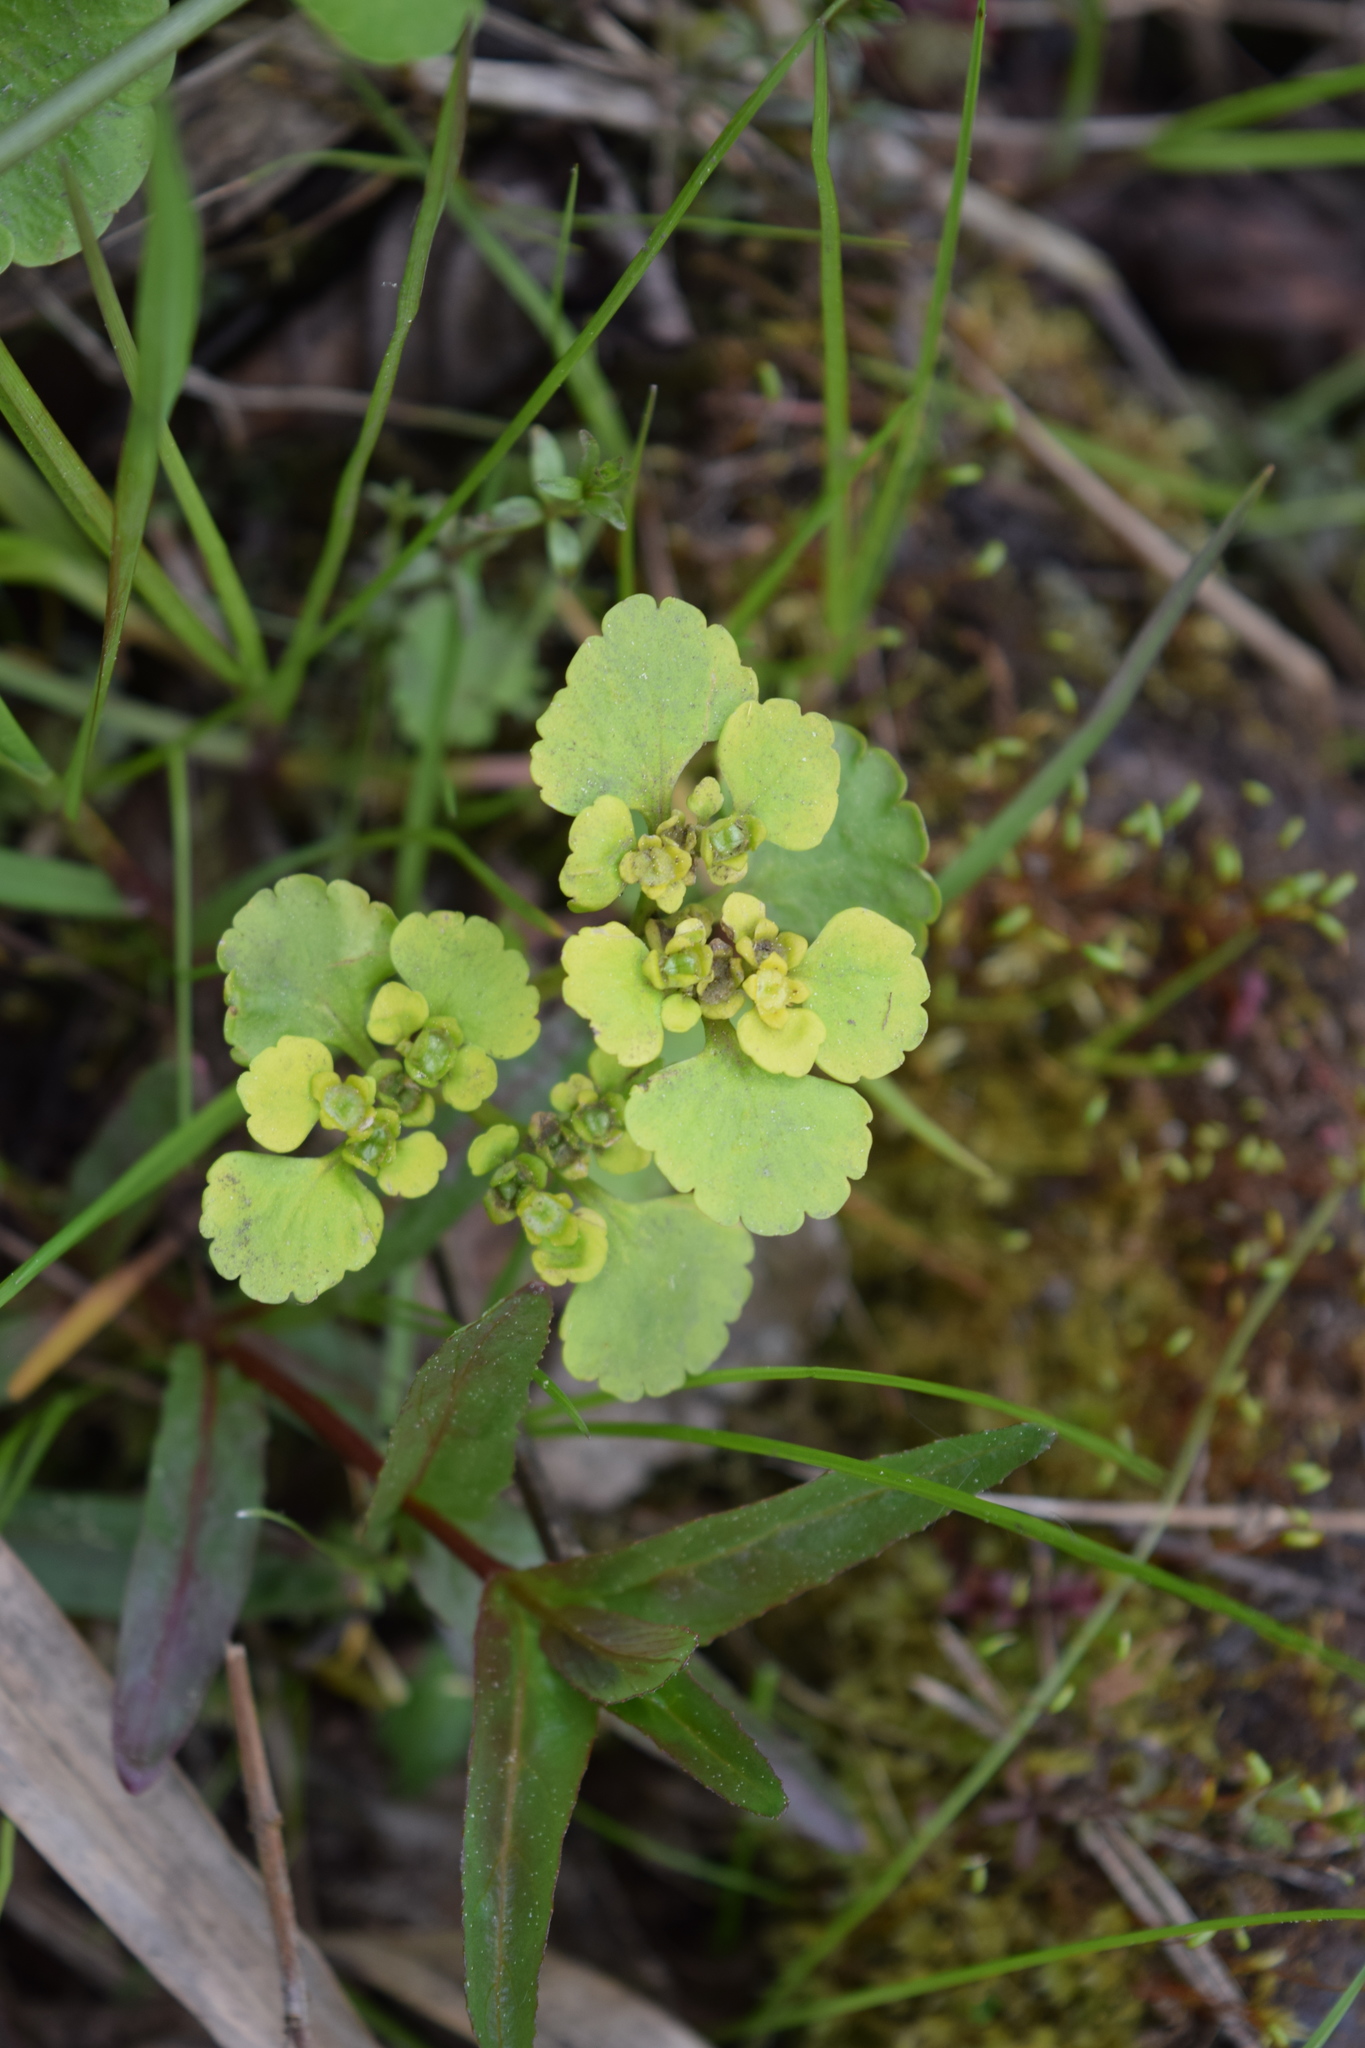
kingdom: Plantae
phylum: Tracheophyta
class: Magnoliopsida
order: Saxifragales
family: Saxifragaceae
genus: Chrysosplenium
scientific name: Chrysosplenium alternifolium
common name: Alternate-leaved golden-saxifrage
